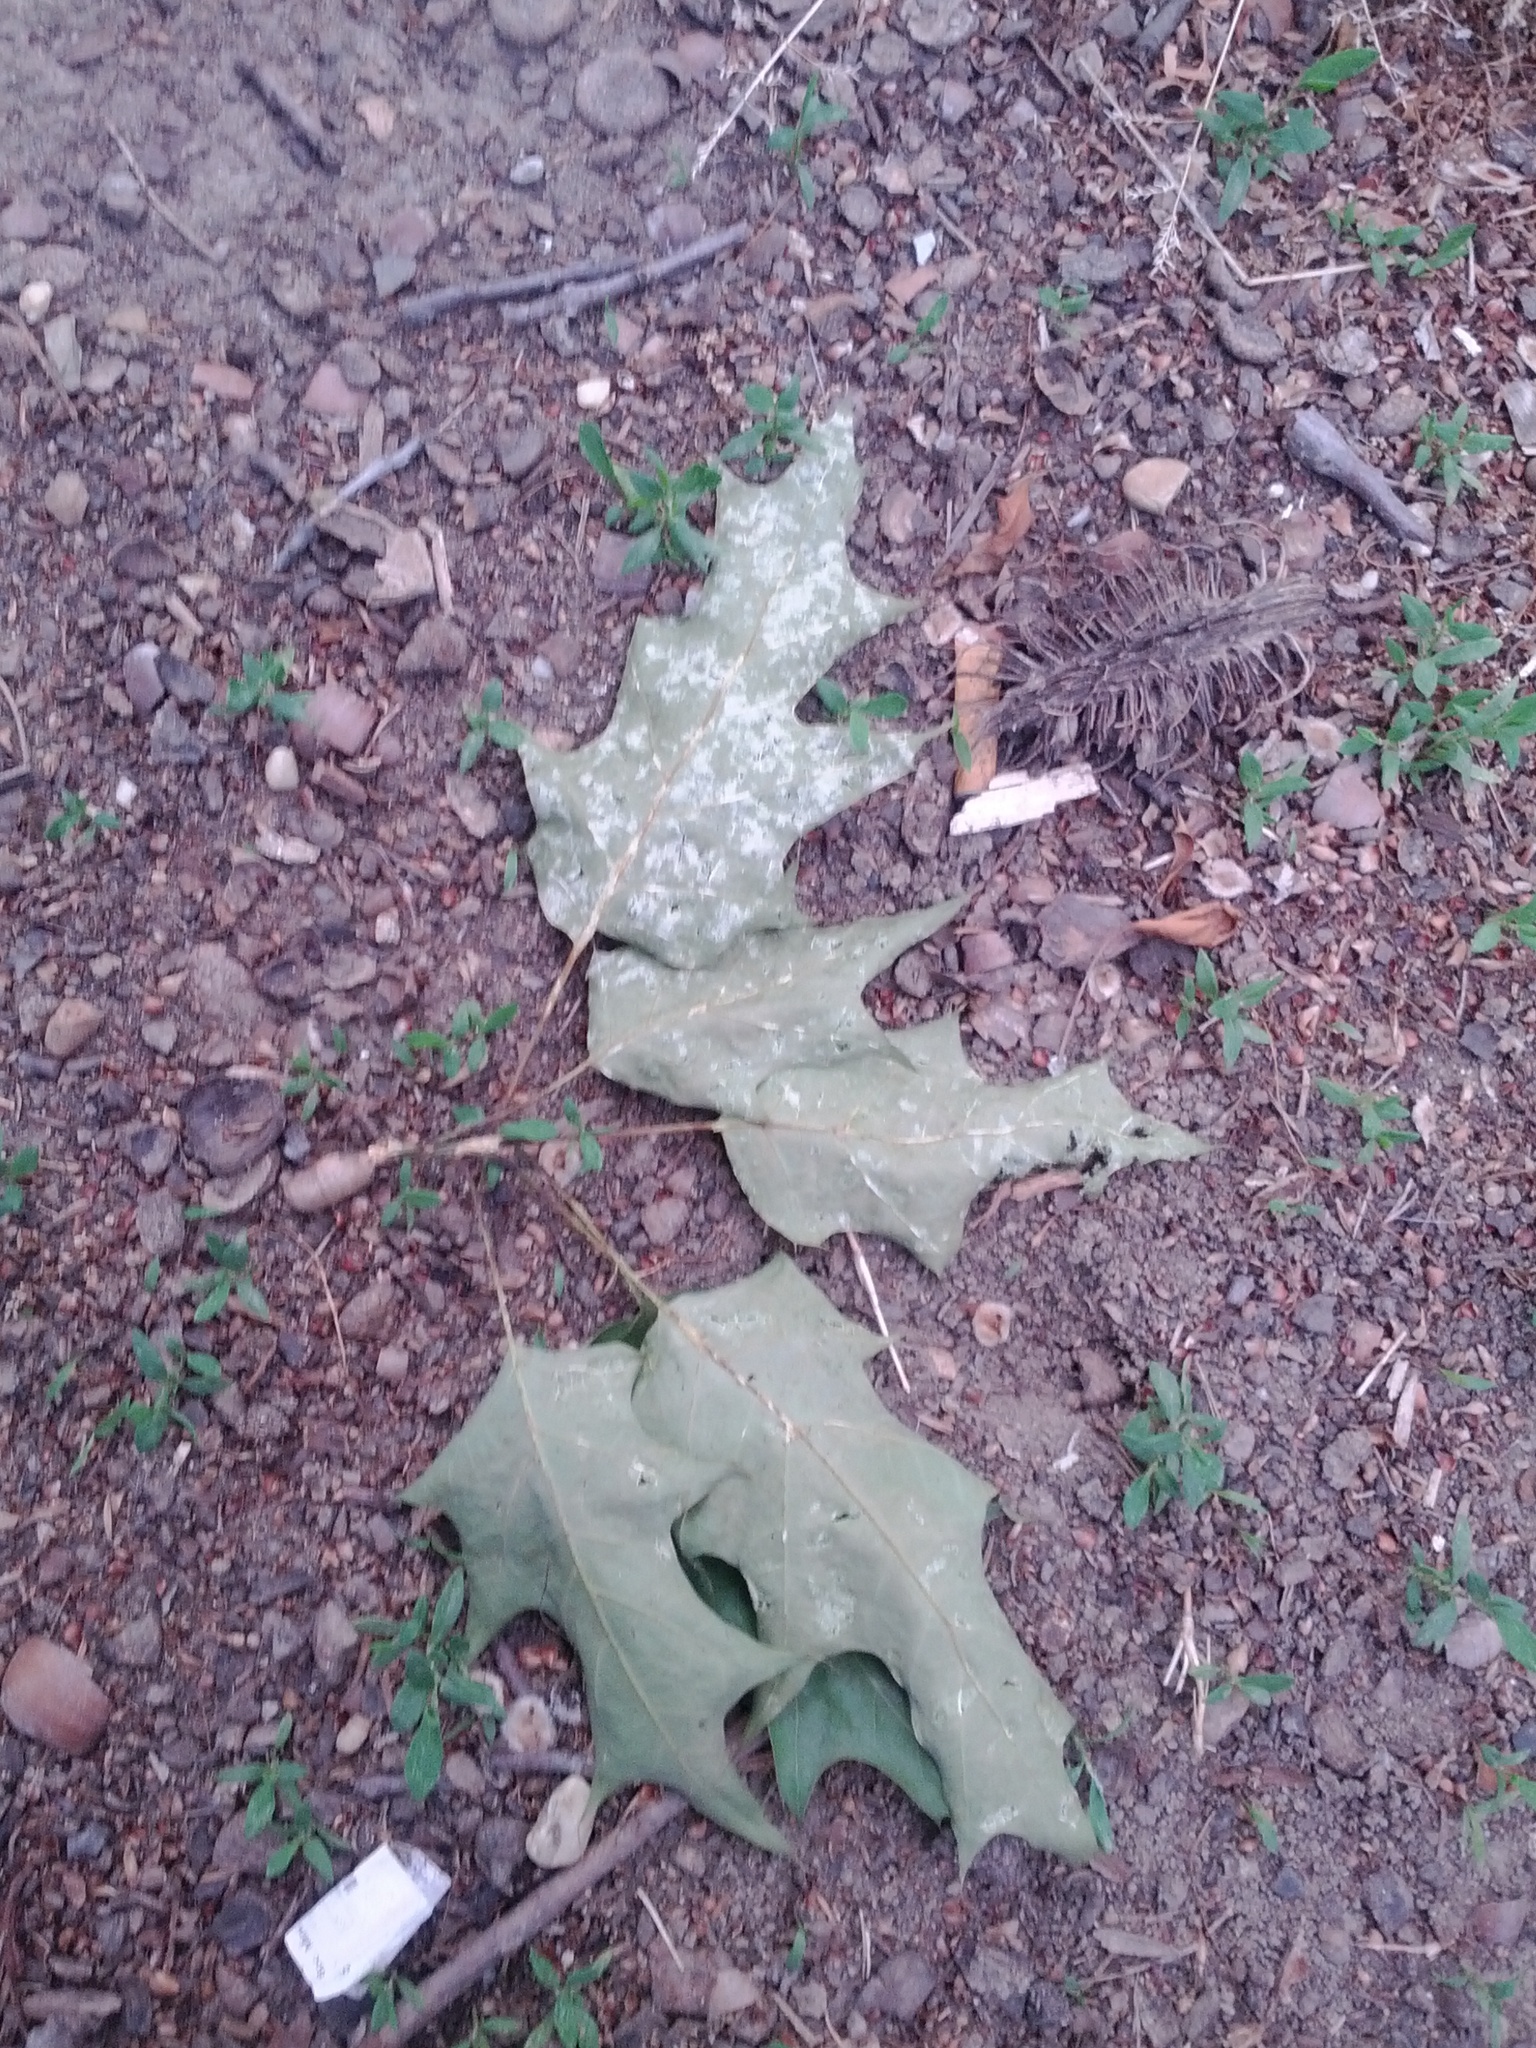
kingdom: Fungi
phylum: Basidiomycota
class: Agaricomycetes
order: Polyporales
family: Laetiporaceae
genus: Laetiporus
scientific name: Laetiporus sulphureus
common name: Chicken of the woods
